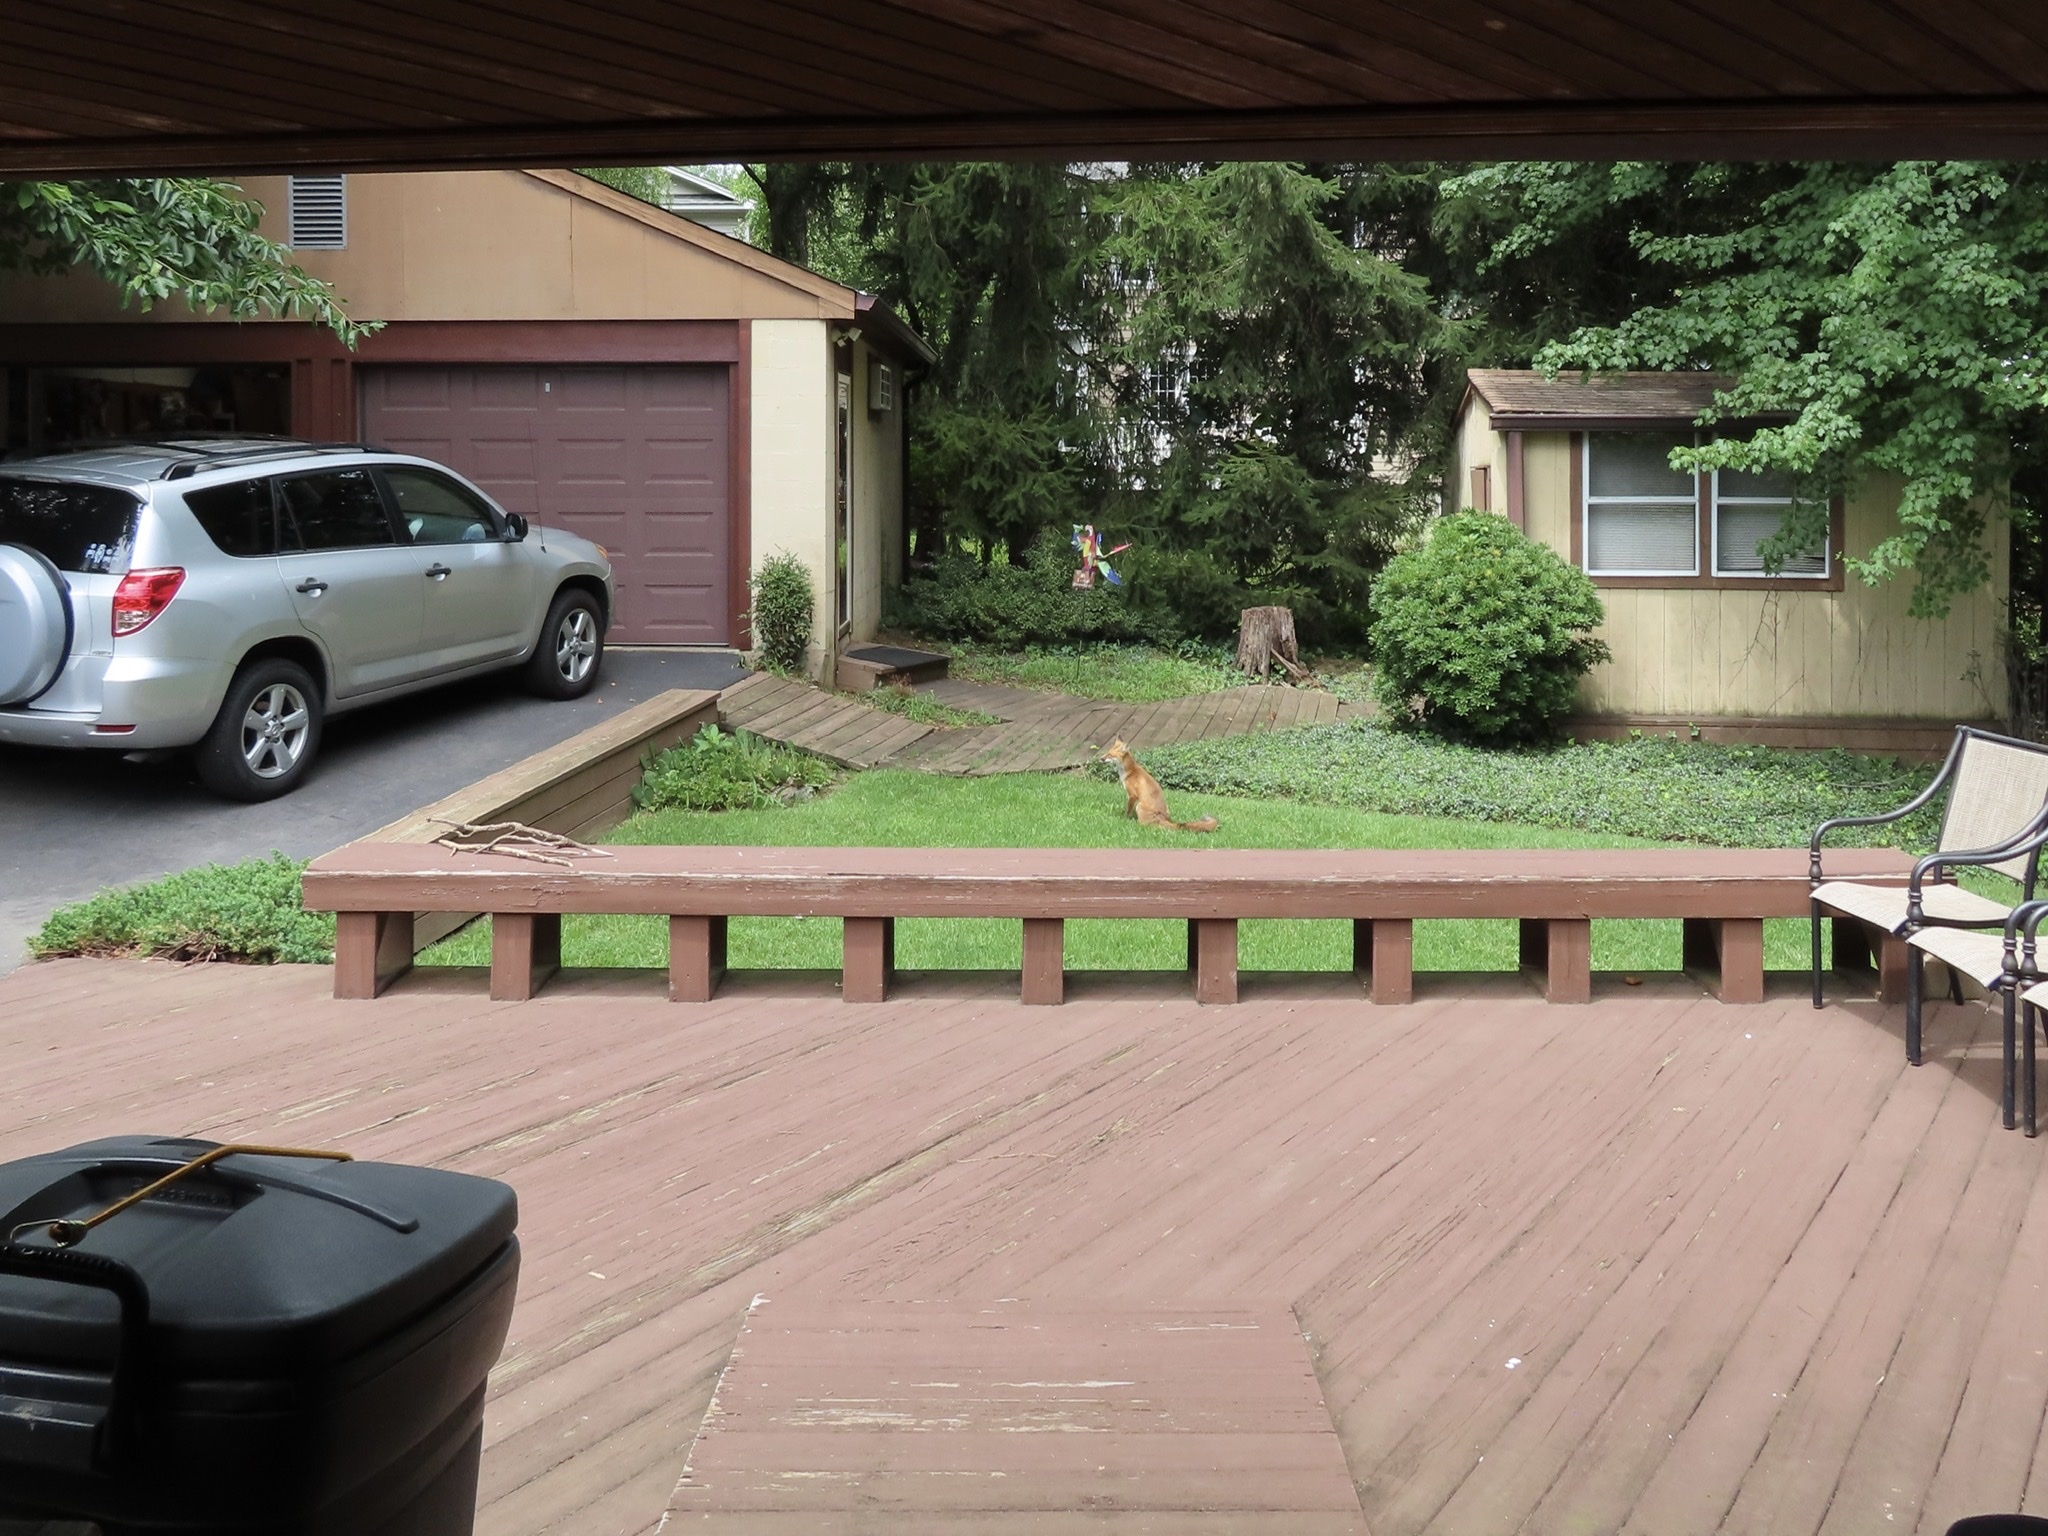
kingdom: Animalia
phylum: Chordata
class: Mammalia
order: Carnivora
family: Canidae
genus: Vulpes
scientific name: Vulpes vulpes
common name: Red fox
